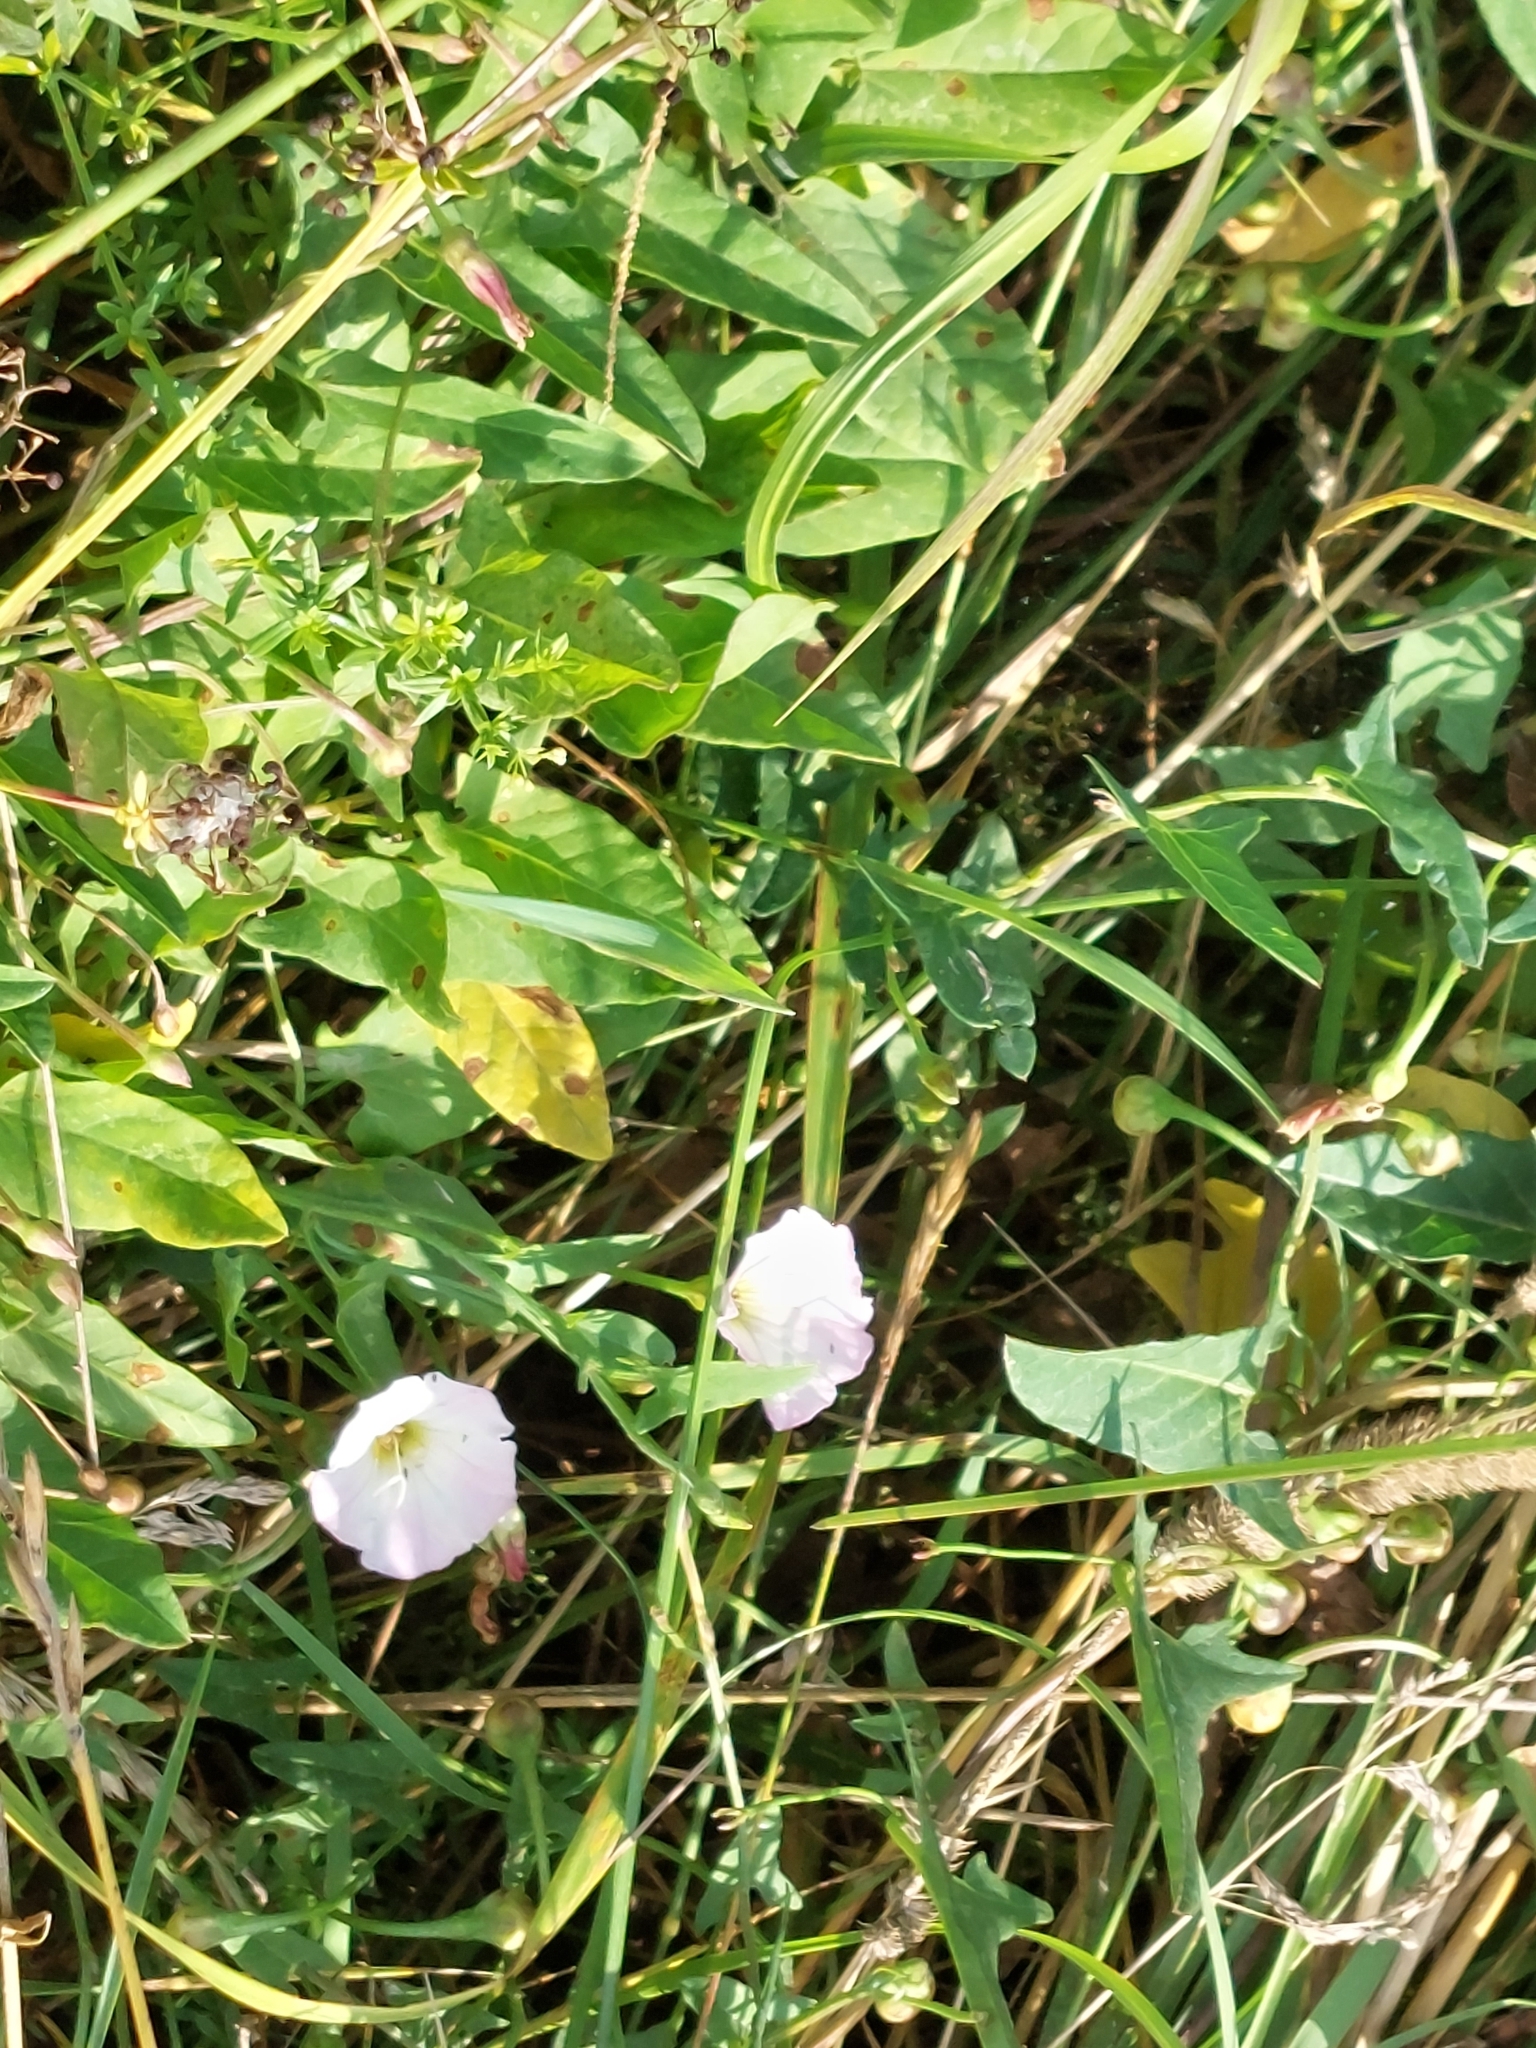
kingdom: Plantae
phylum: Tracheophyta
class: Magnoliopsida
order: Solanales
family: Convolvulaceae
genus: Convolvulus
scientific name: Convolvulus arvensis
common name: Field bindweed
